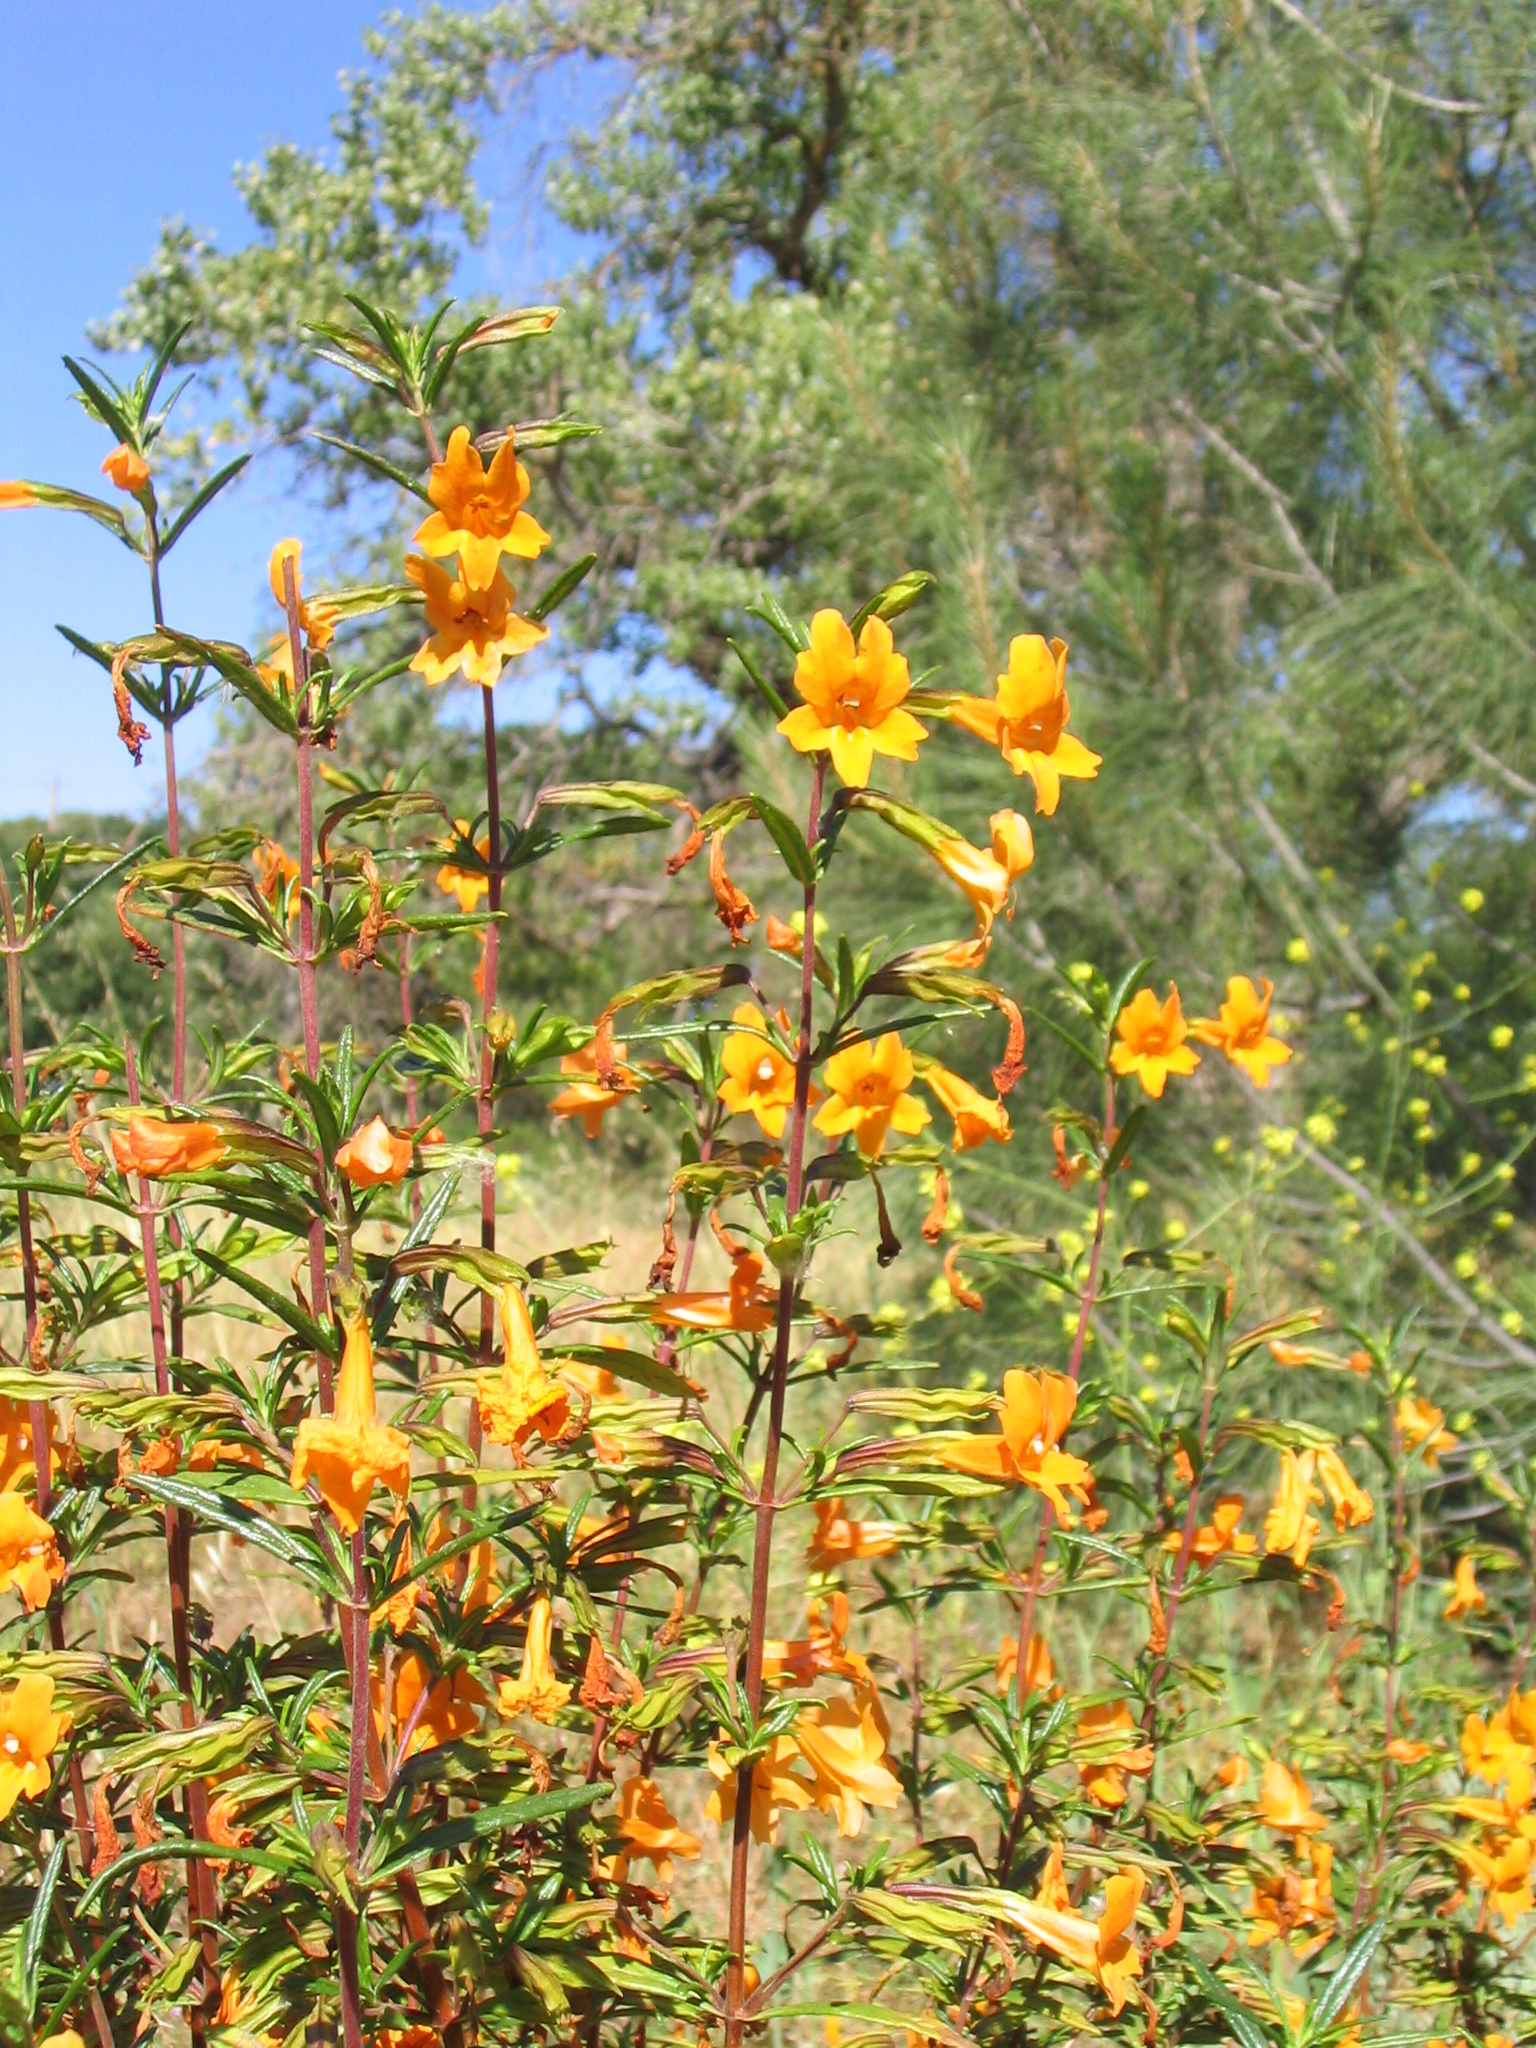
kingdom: Plantae
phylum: Tracheophyta
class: Magnoliopsida
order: Lamiales
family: Phrymaceae
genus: Diplacus
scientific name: Diplacus aurantiacus
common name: Bush monkey-flower
